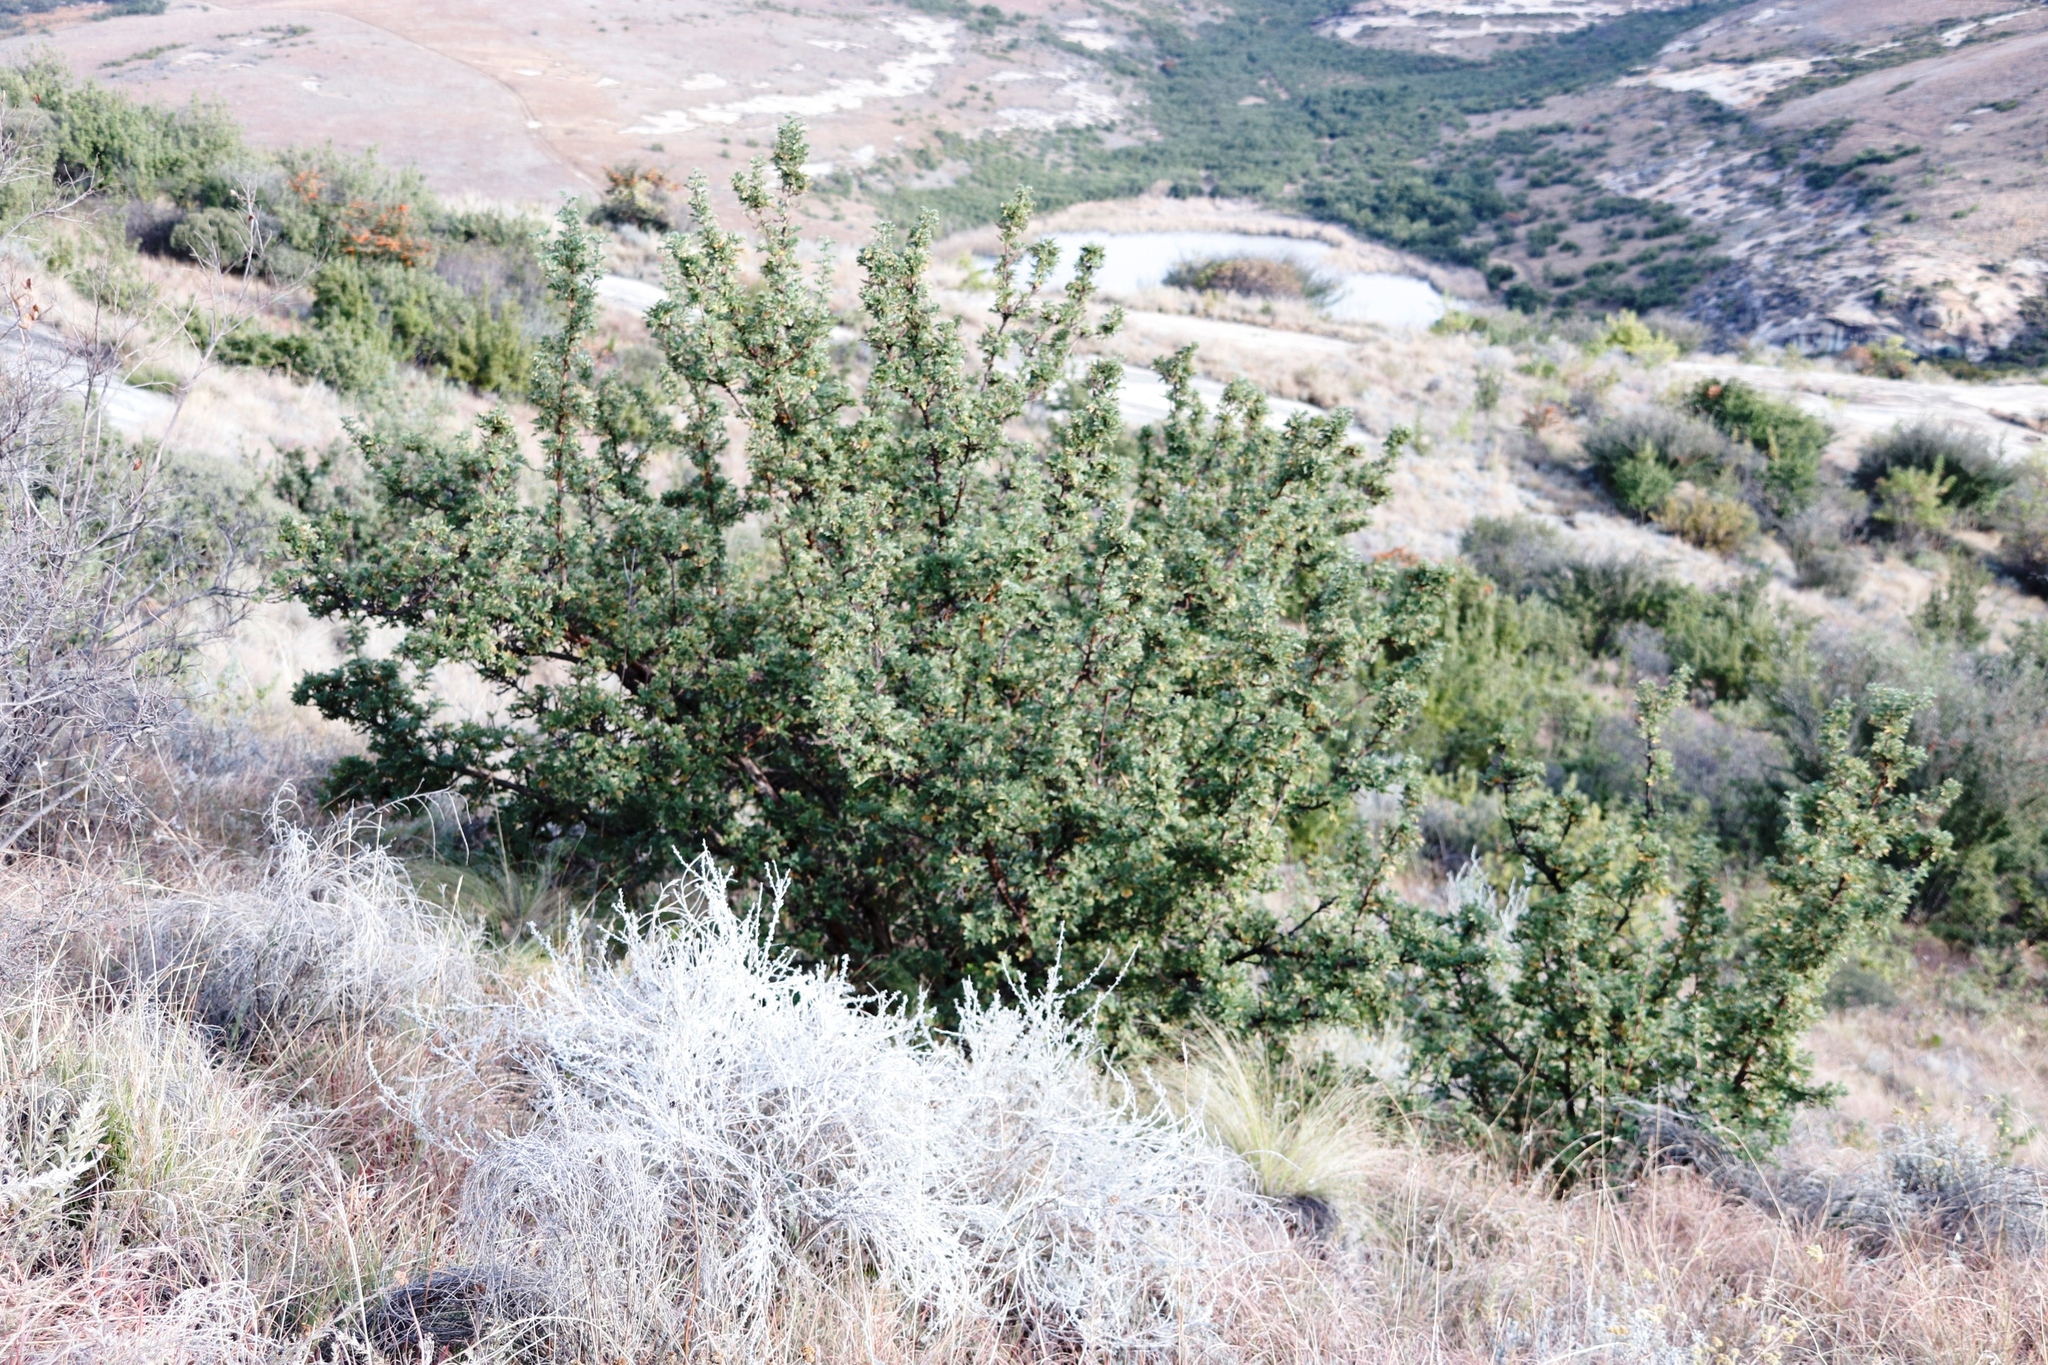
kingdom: Plantae
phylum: Tracheophyta
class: Magnoliopsida
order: Rosales
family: Rosaceae
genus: Leucosidea
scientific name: Leucosidea sericea
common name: Oldwood
